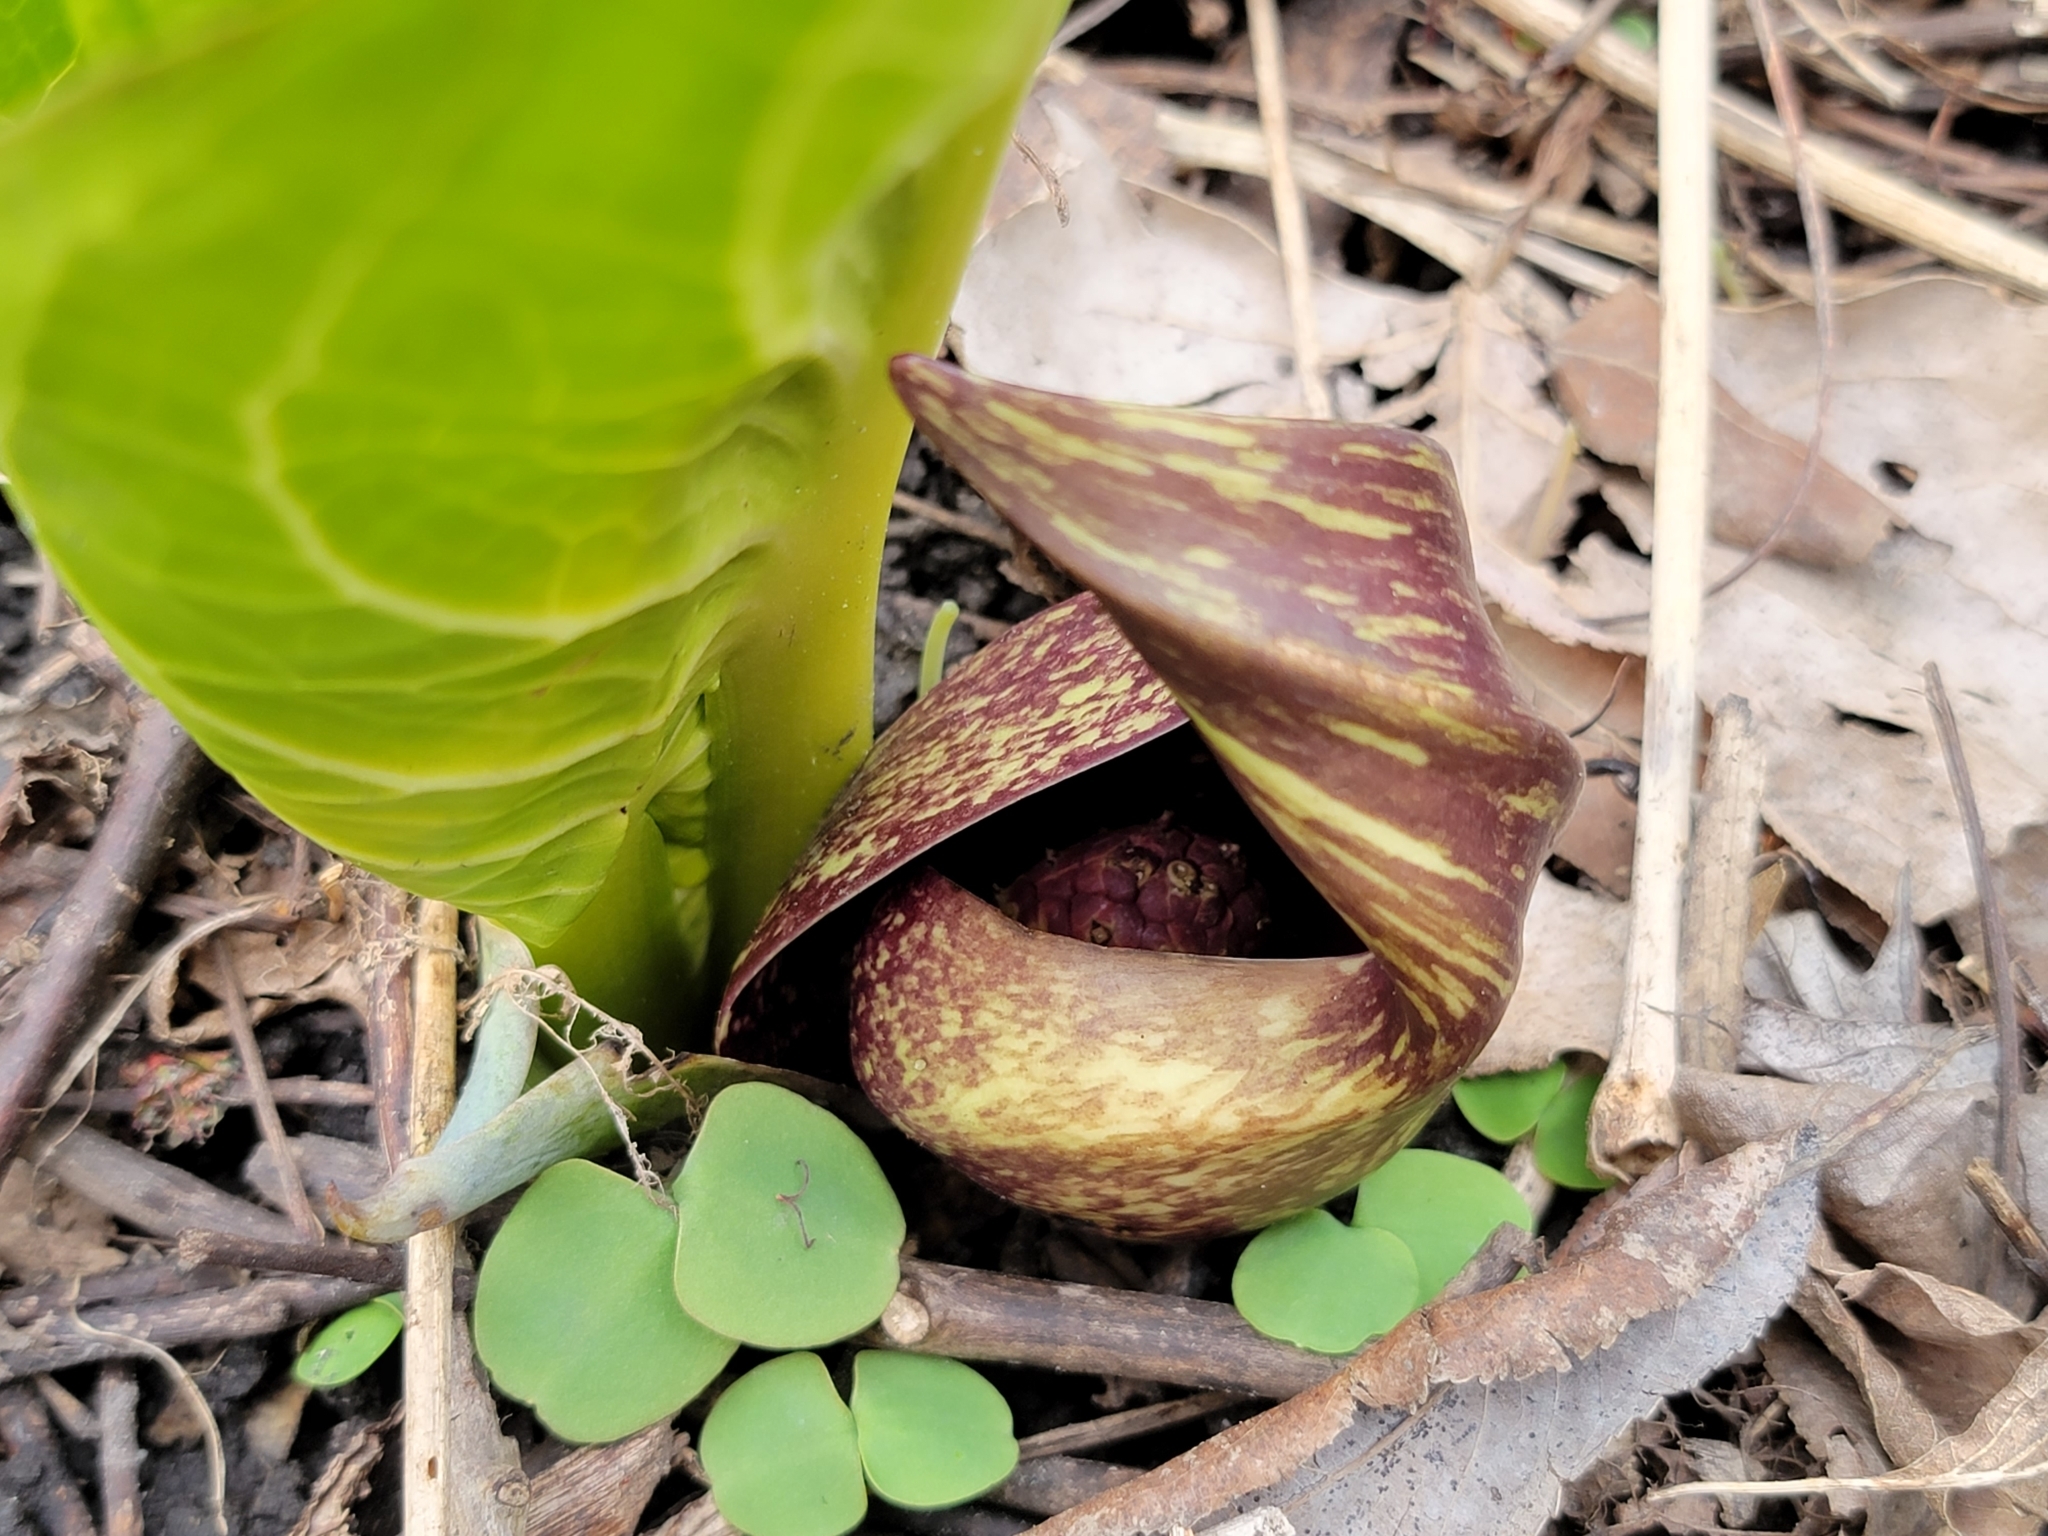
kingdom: Plantae
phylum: Tracheophyta
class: Liliopsida
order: Alismatales
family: Araceae
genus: Symplocarpus
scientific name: Symplocarpus foetidus
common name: Eastern skunk cabbage
